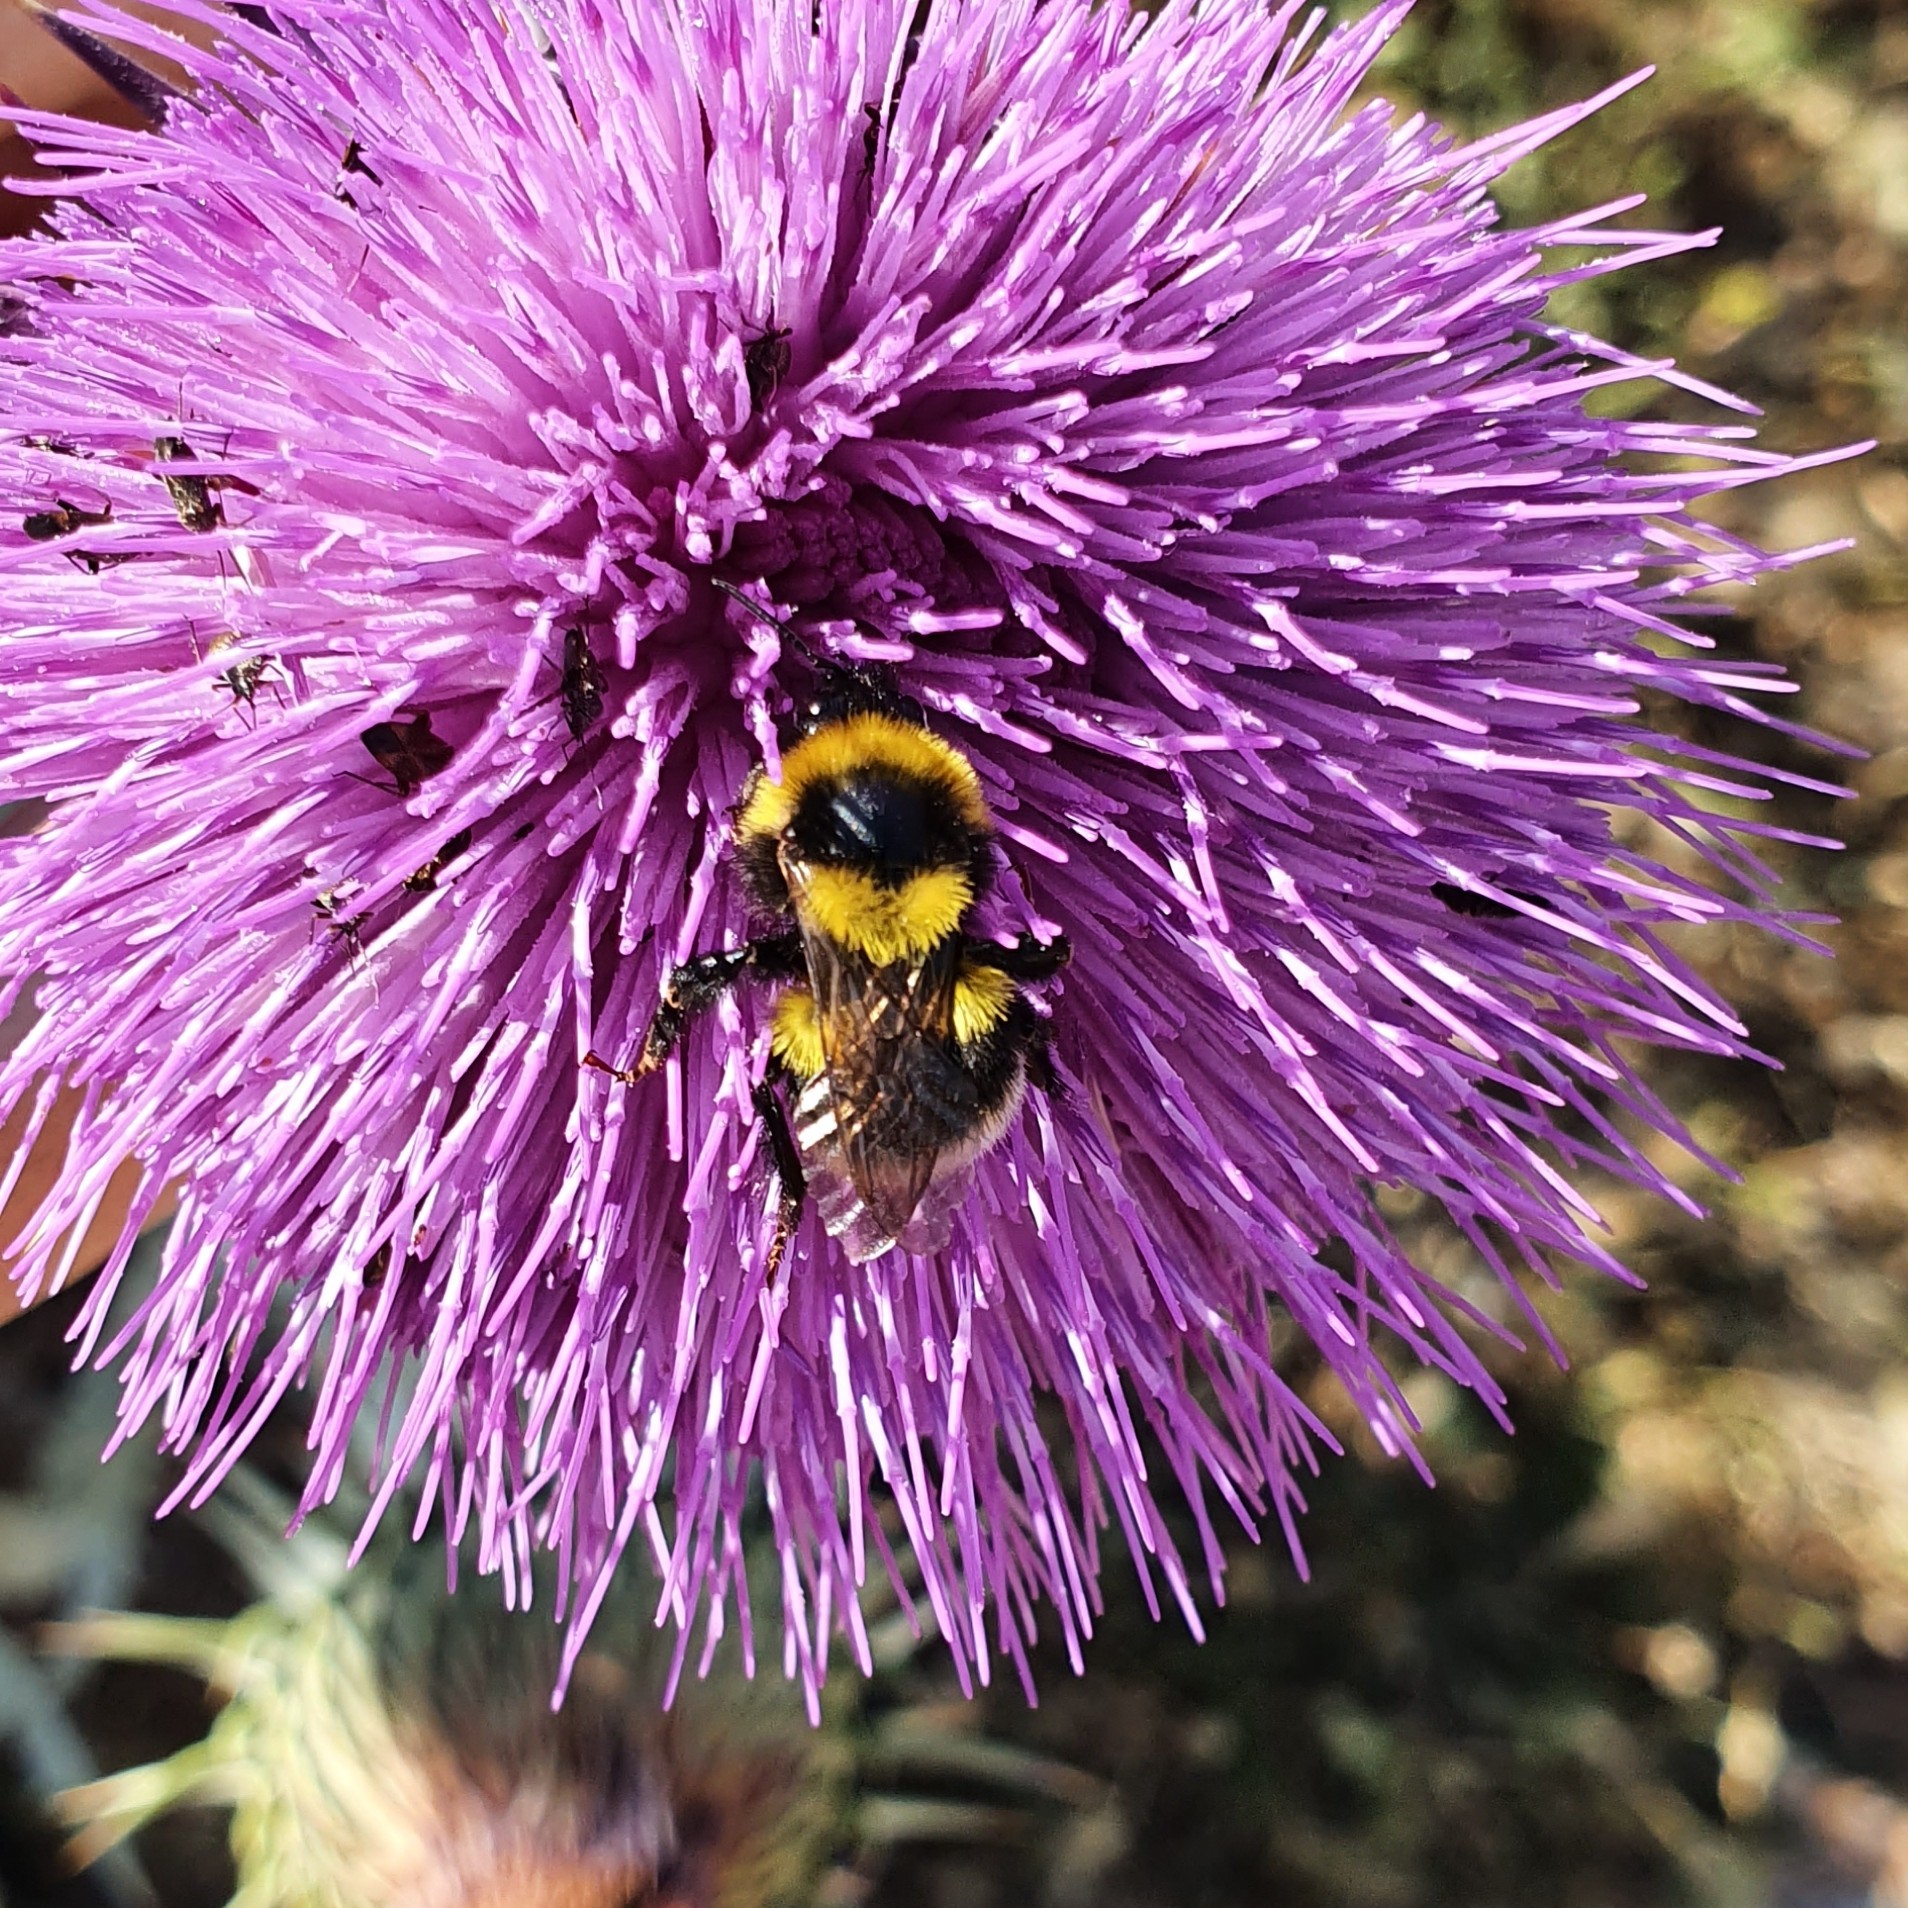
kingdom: Animalia
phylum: Arthropoda
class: Insecta
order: Hymenoptera
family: Apidae
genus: Bombus
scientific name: Bombus ruderatus
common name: Large garden bumblebee
